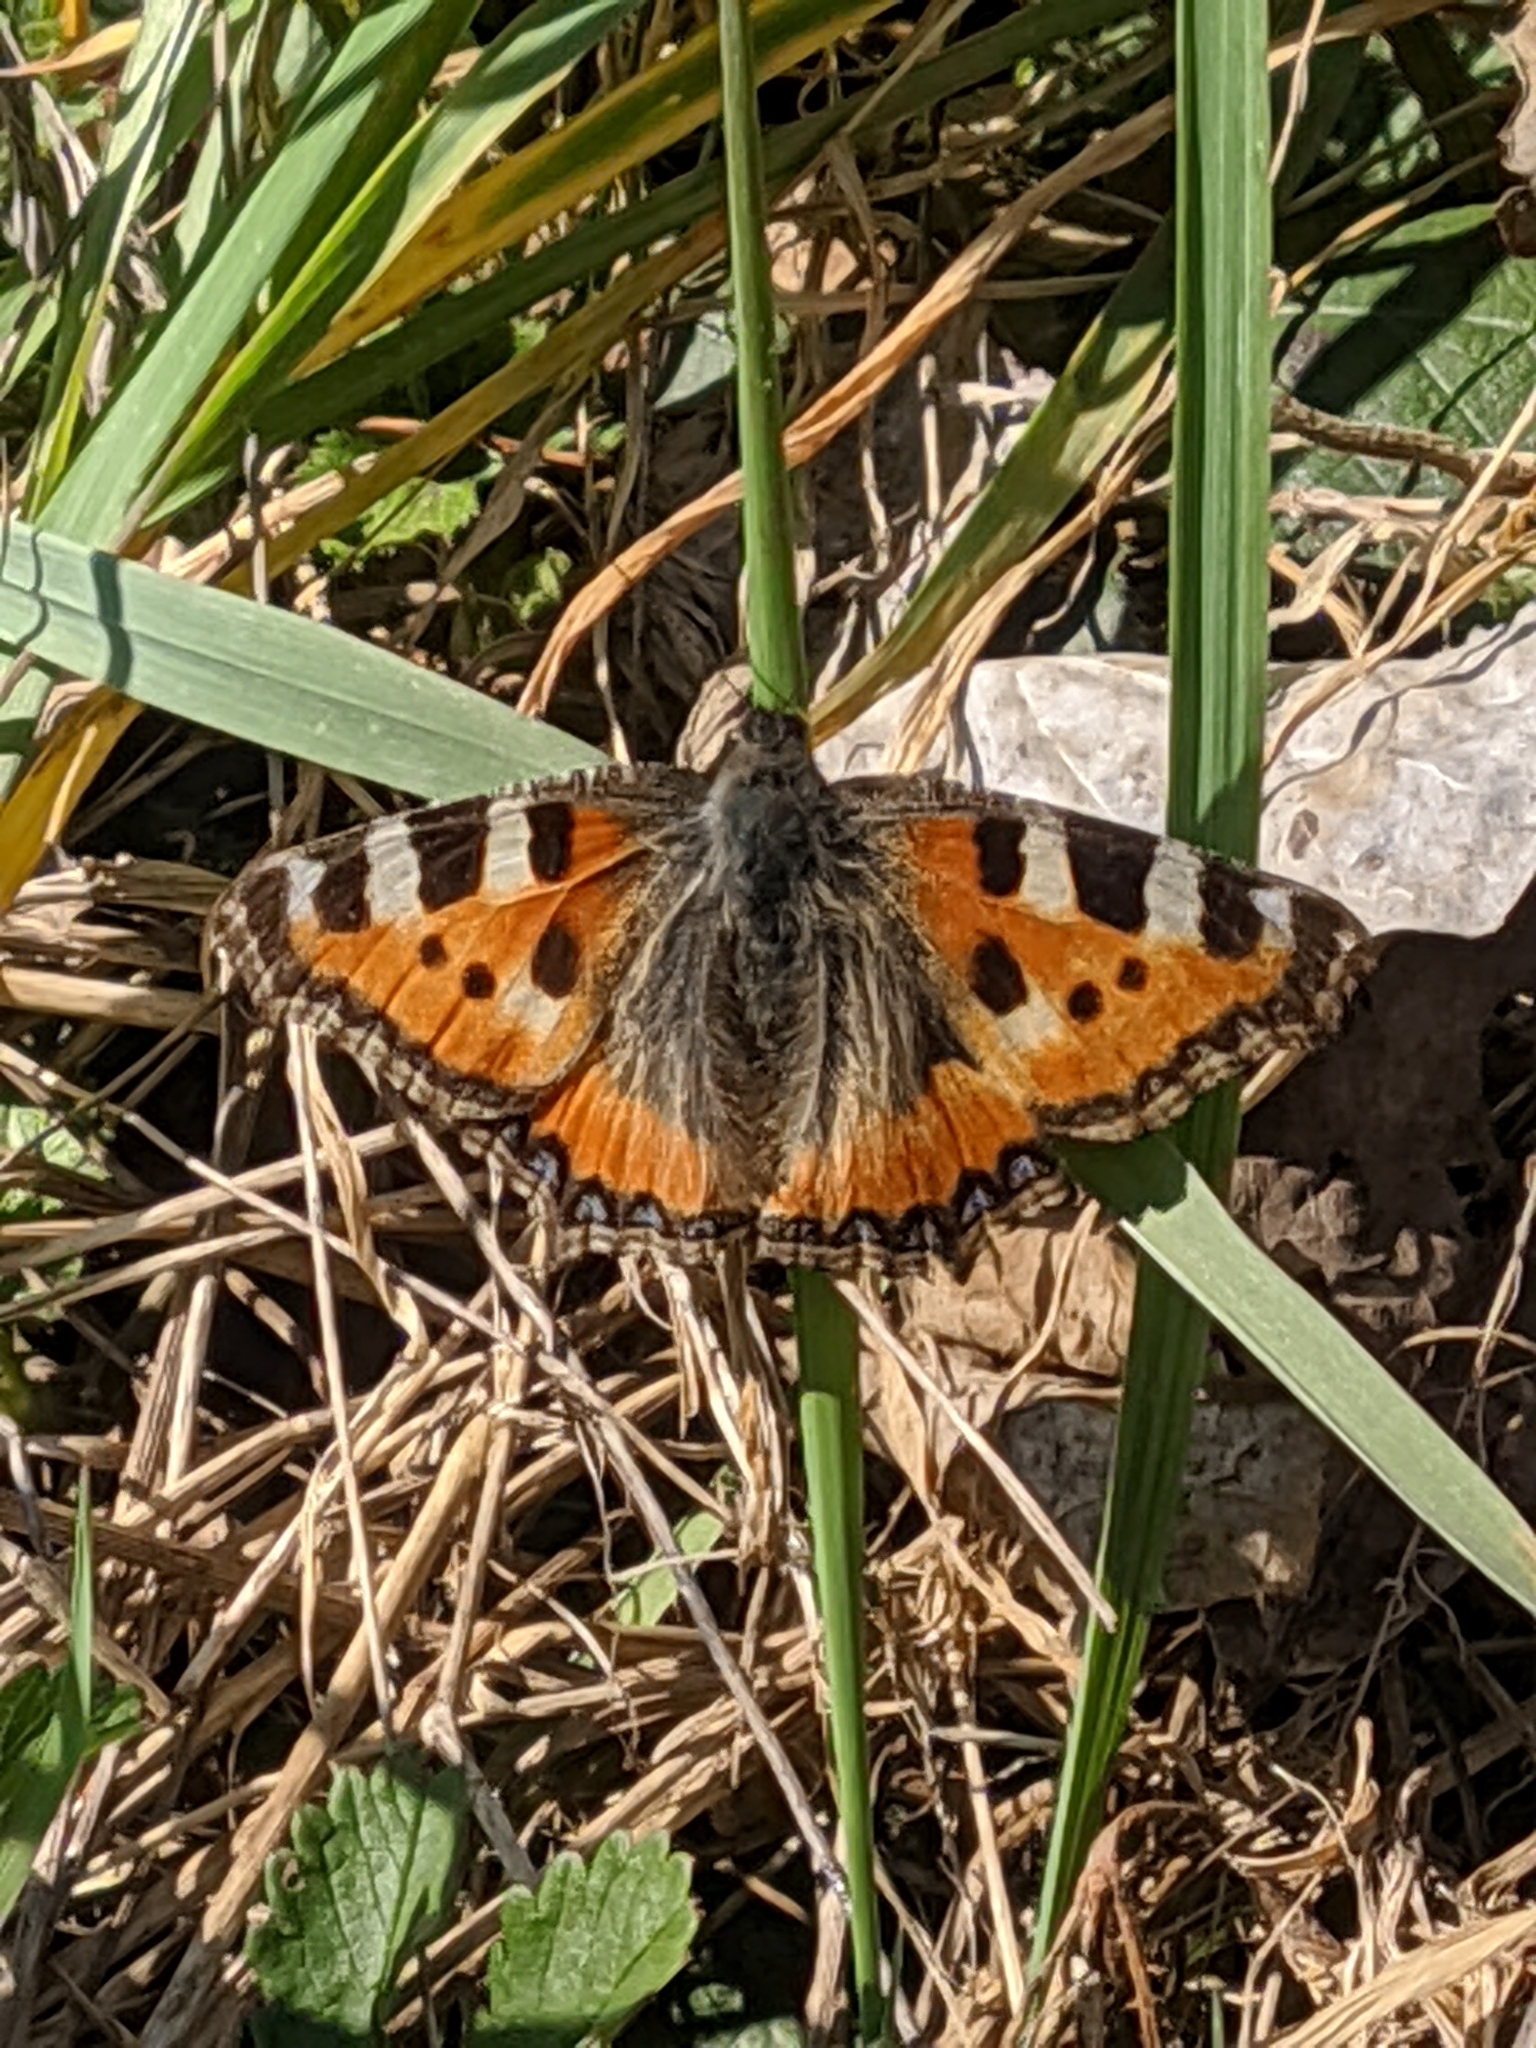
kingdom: Animalia
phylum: Arthropoda
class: Insecta
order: Lepidoptera
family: Nymphalidae
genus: Aglais
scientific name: Aglais urticae
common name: Small tortoiseshell
